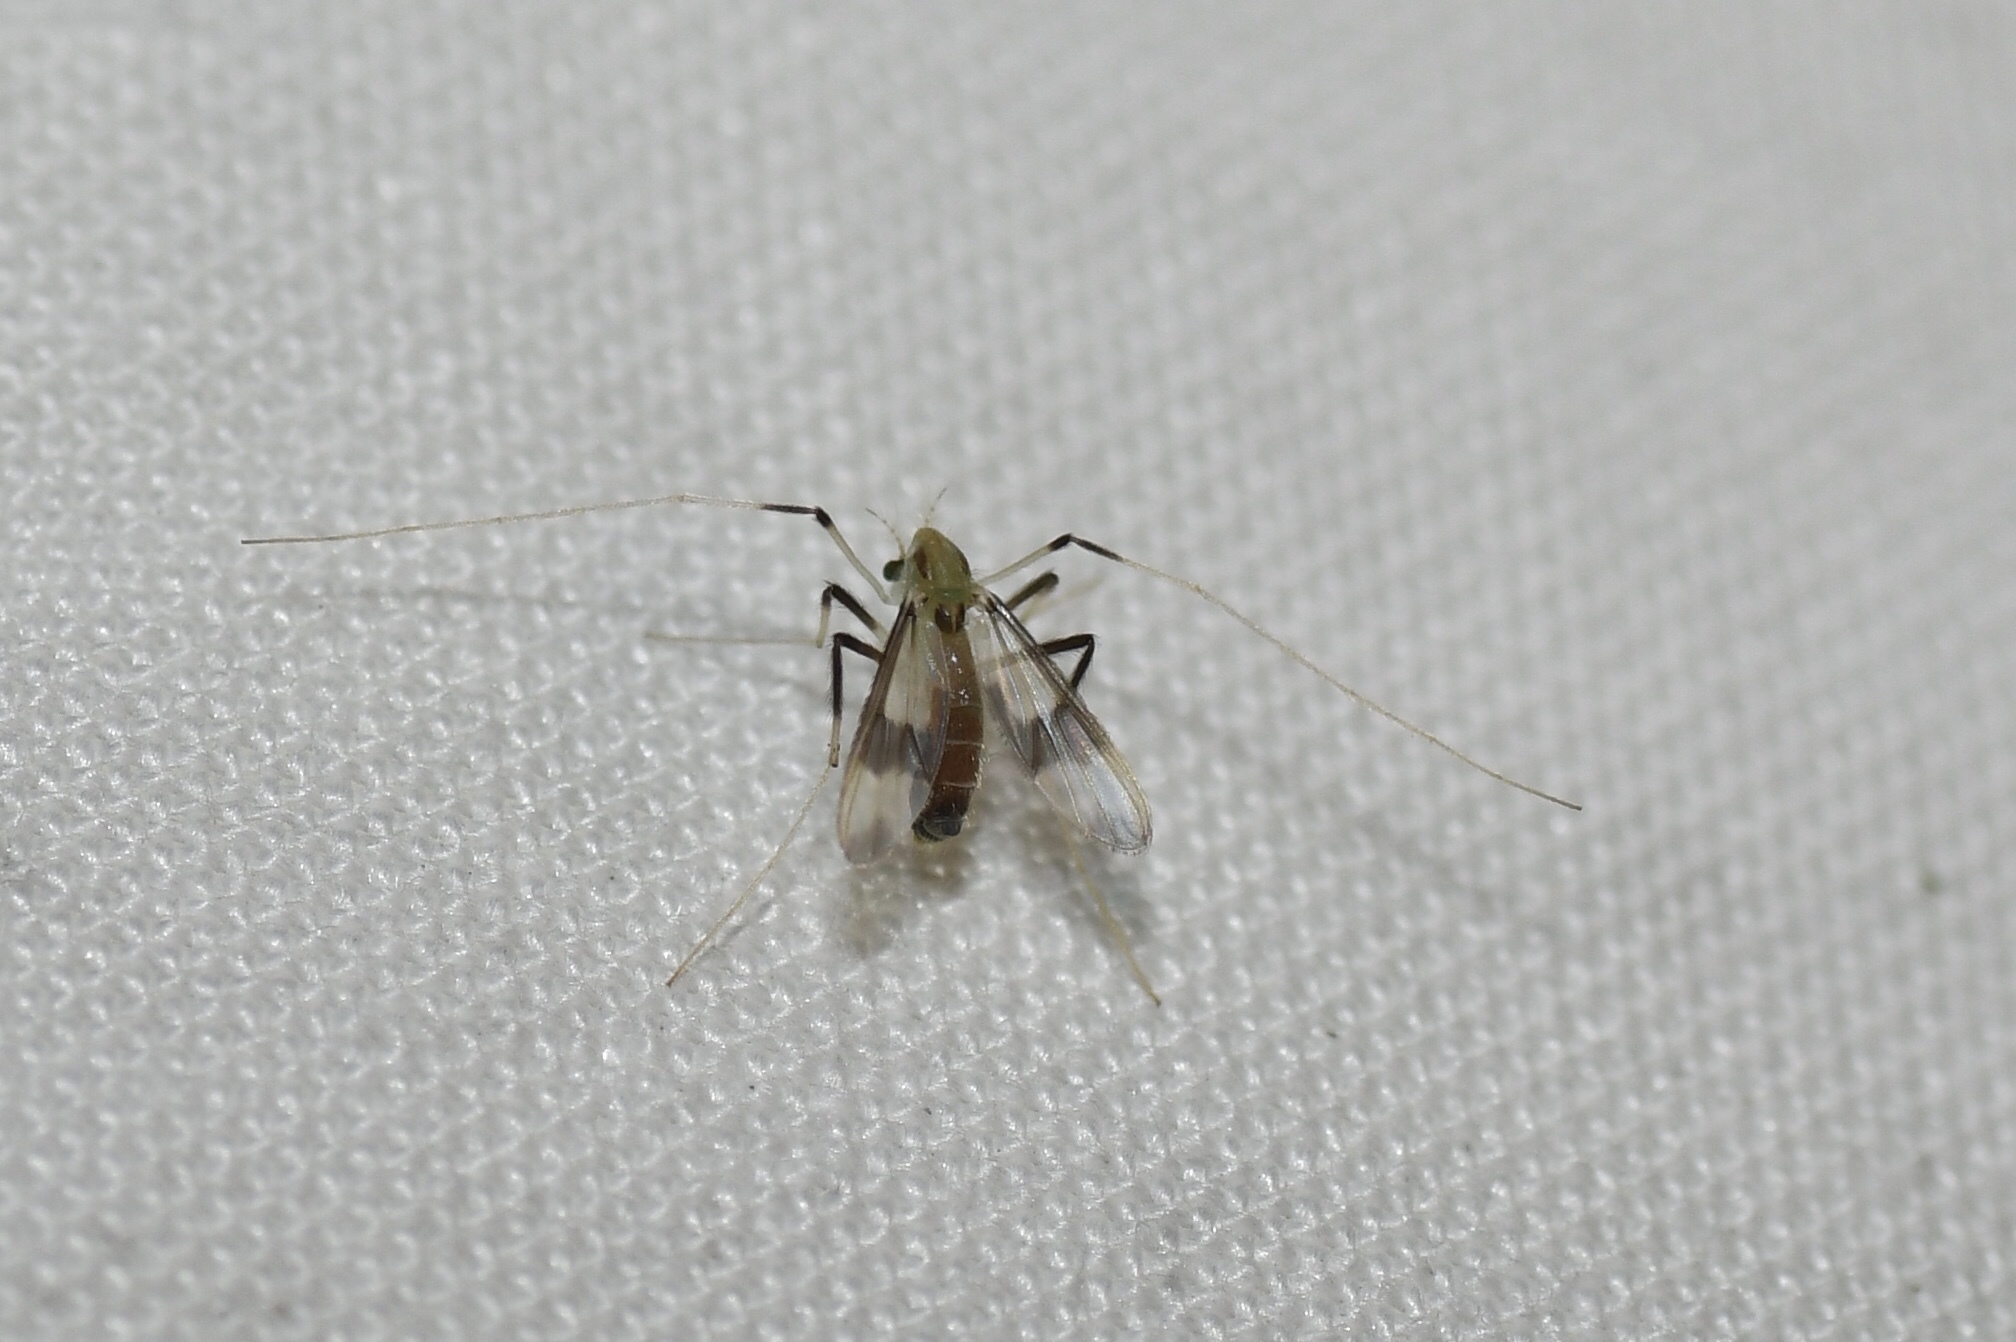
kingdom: Animalia
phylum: Arthropoda
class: Insecta
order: Diptera
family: Chironomidae
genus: Stenochironomus
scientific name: Stenochironomus pulchripennis
